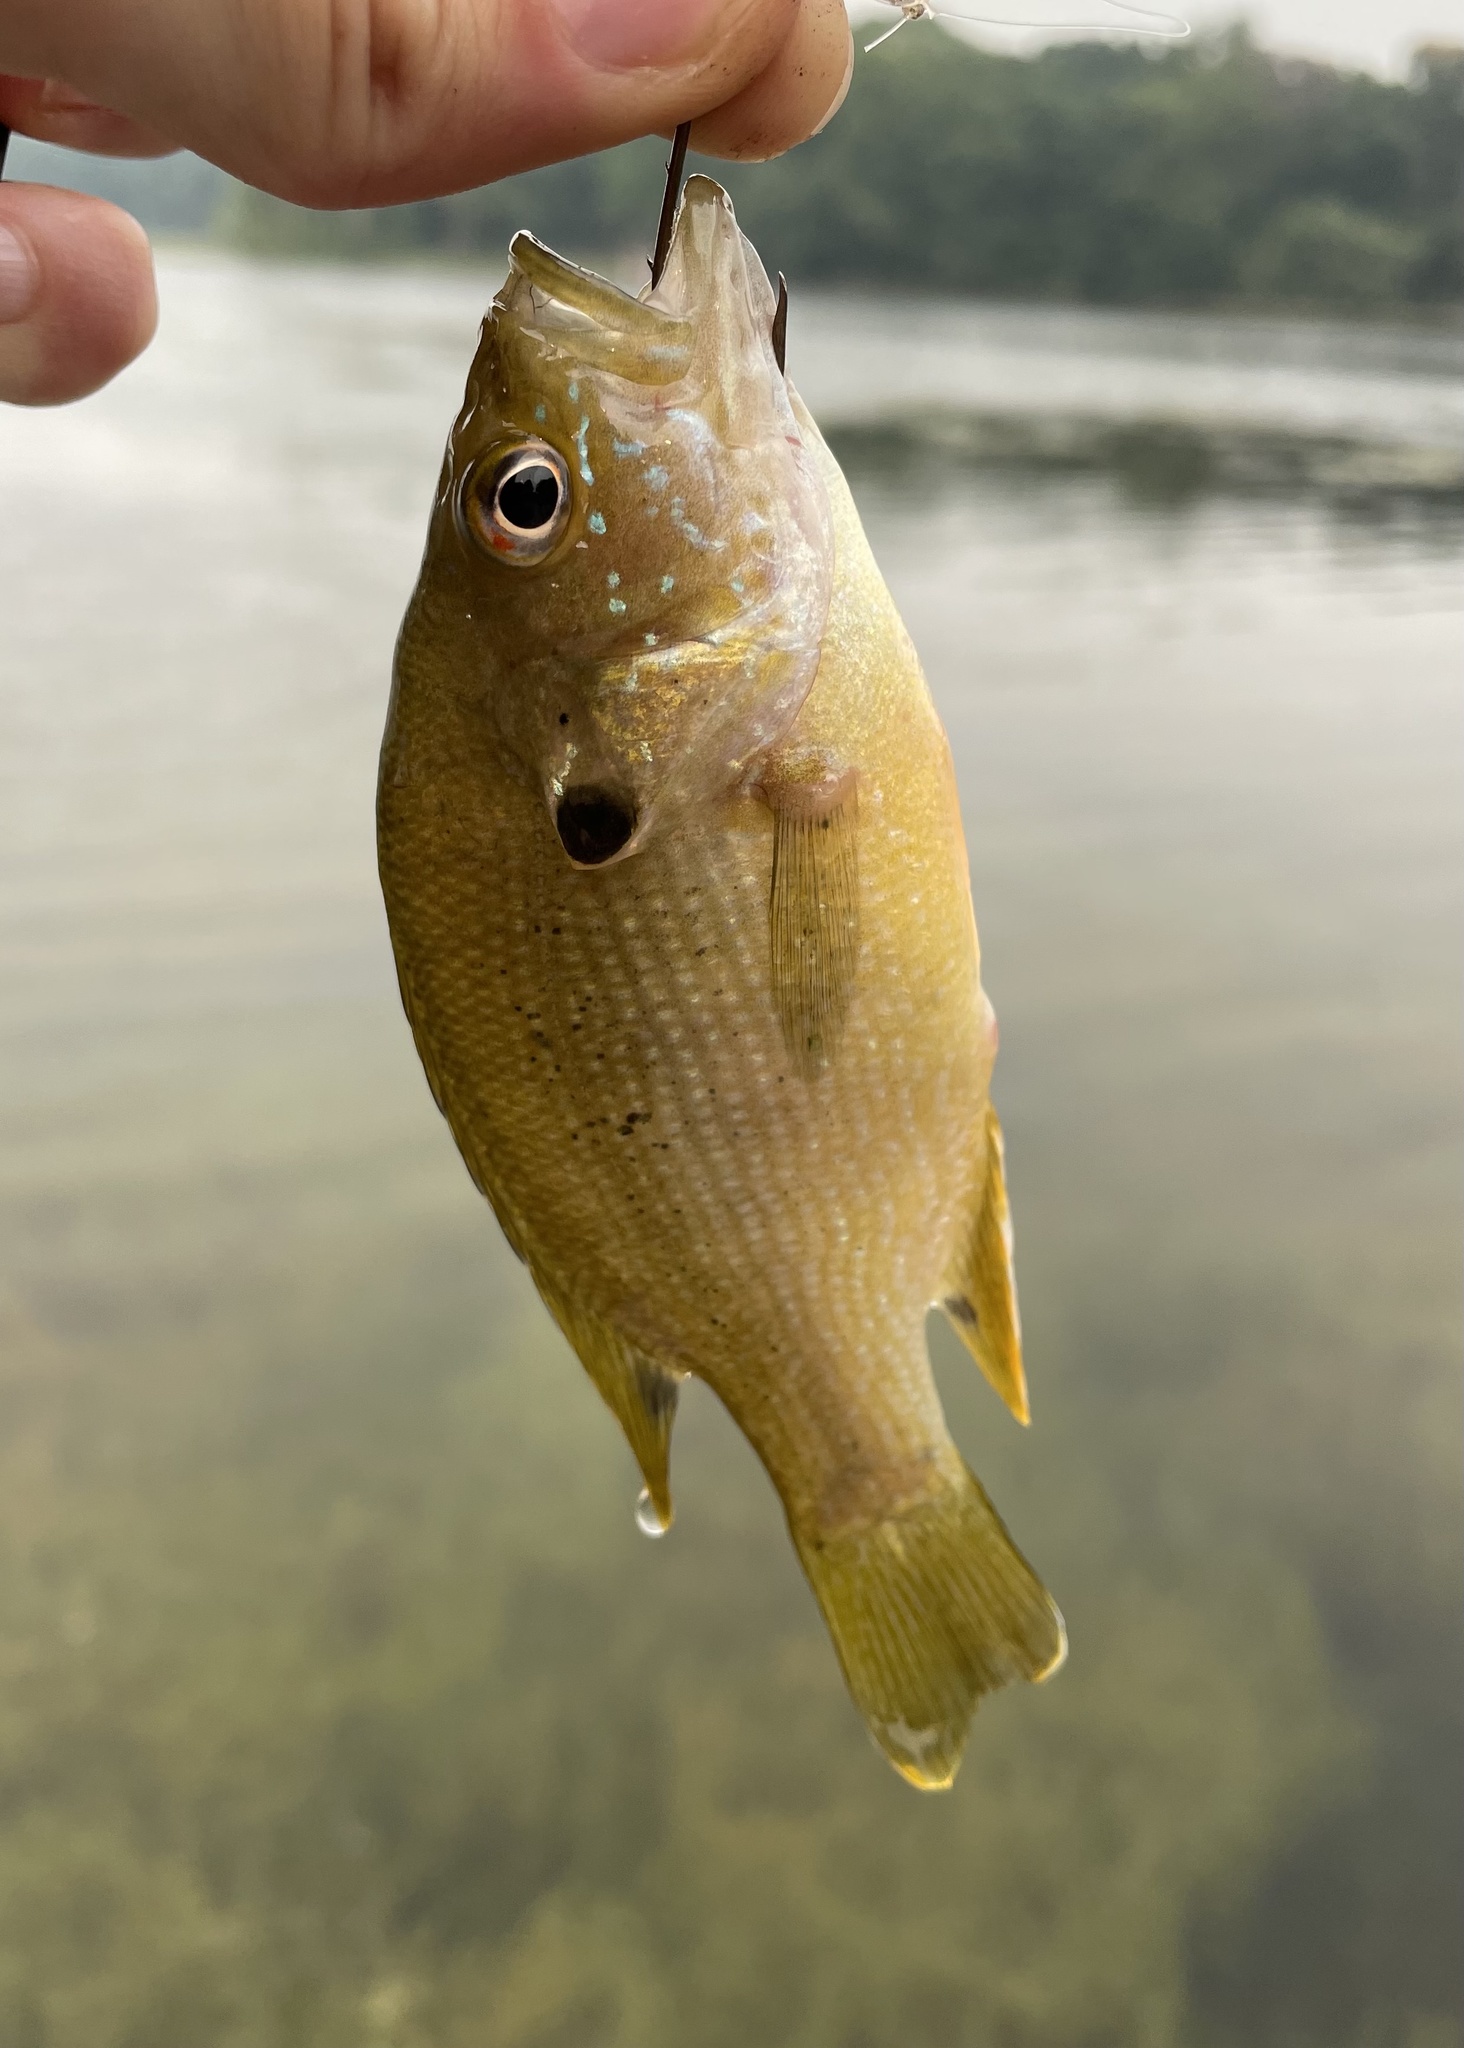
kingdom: Animalia
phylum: Chordata
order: Perciformes
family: Centrarchidae
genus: Lepomis
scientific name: Lepomis cyanellus
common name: Green sunfish
